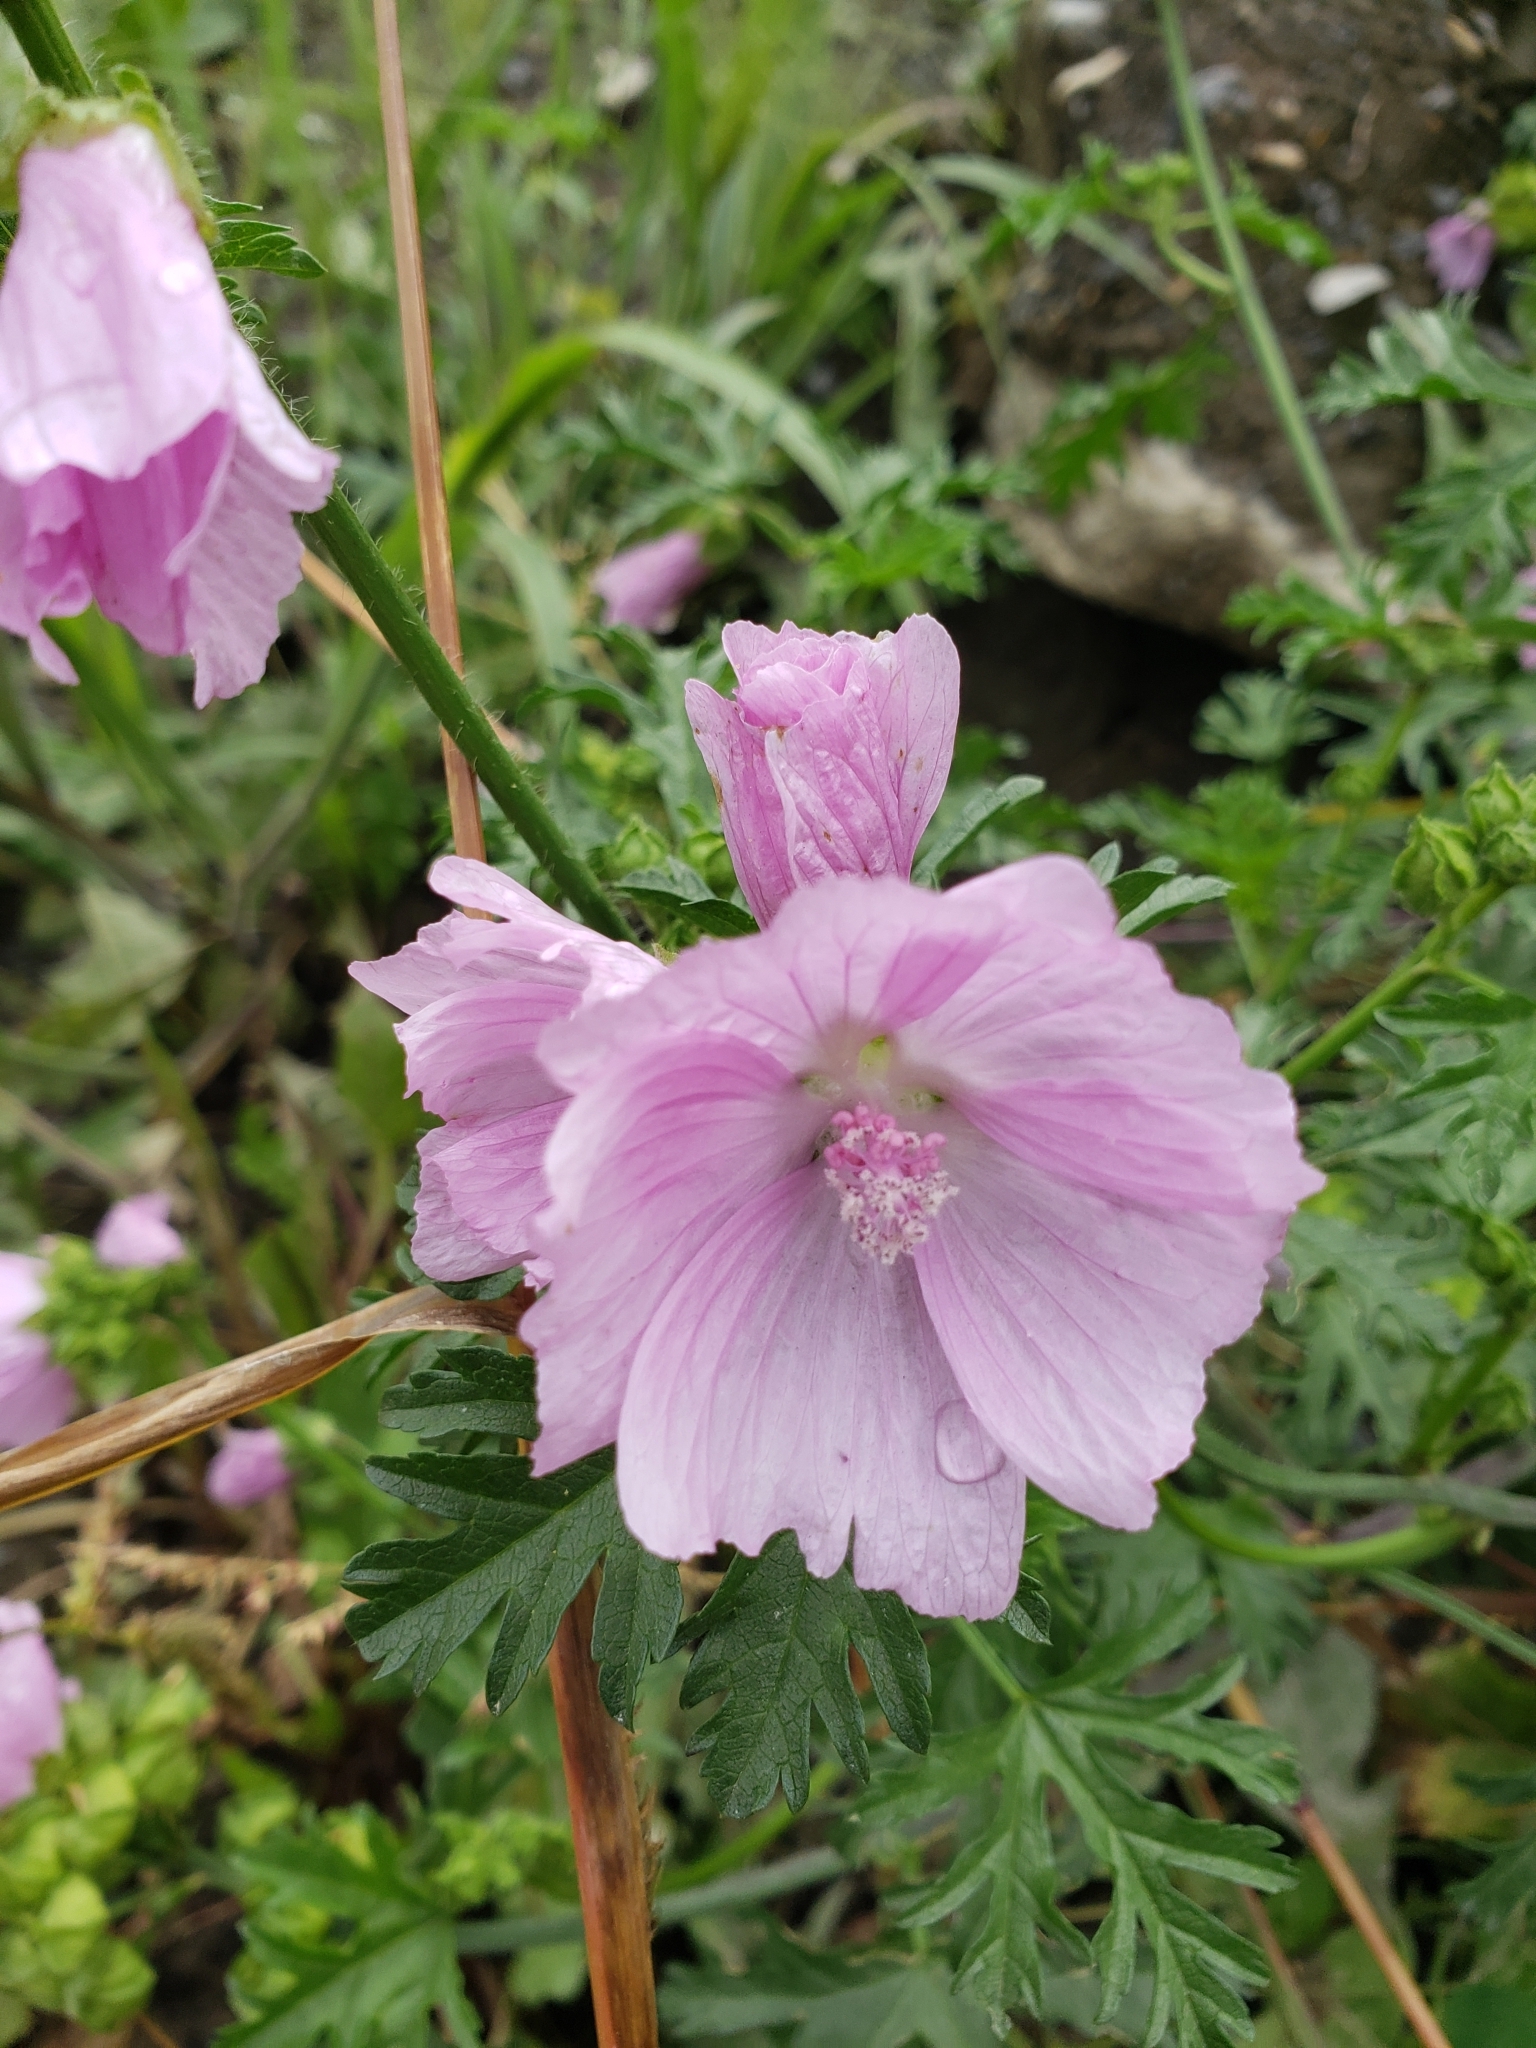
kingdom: Plantae
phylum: Tracheophyta
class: Magnoliopsida
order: Malvales
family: Malvaceae
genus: Malva
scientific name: Malva thuringiaca
